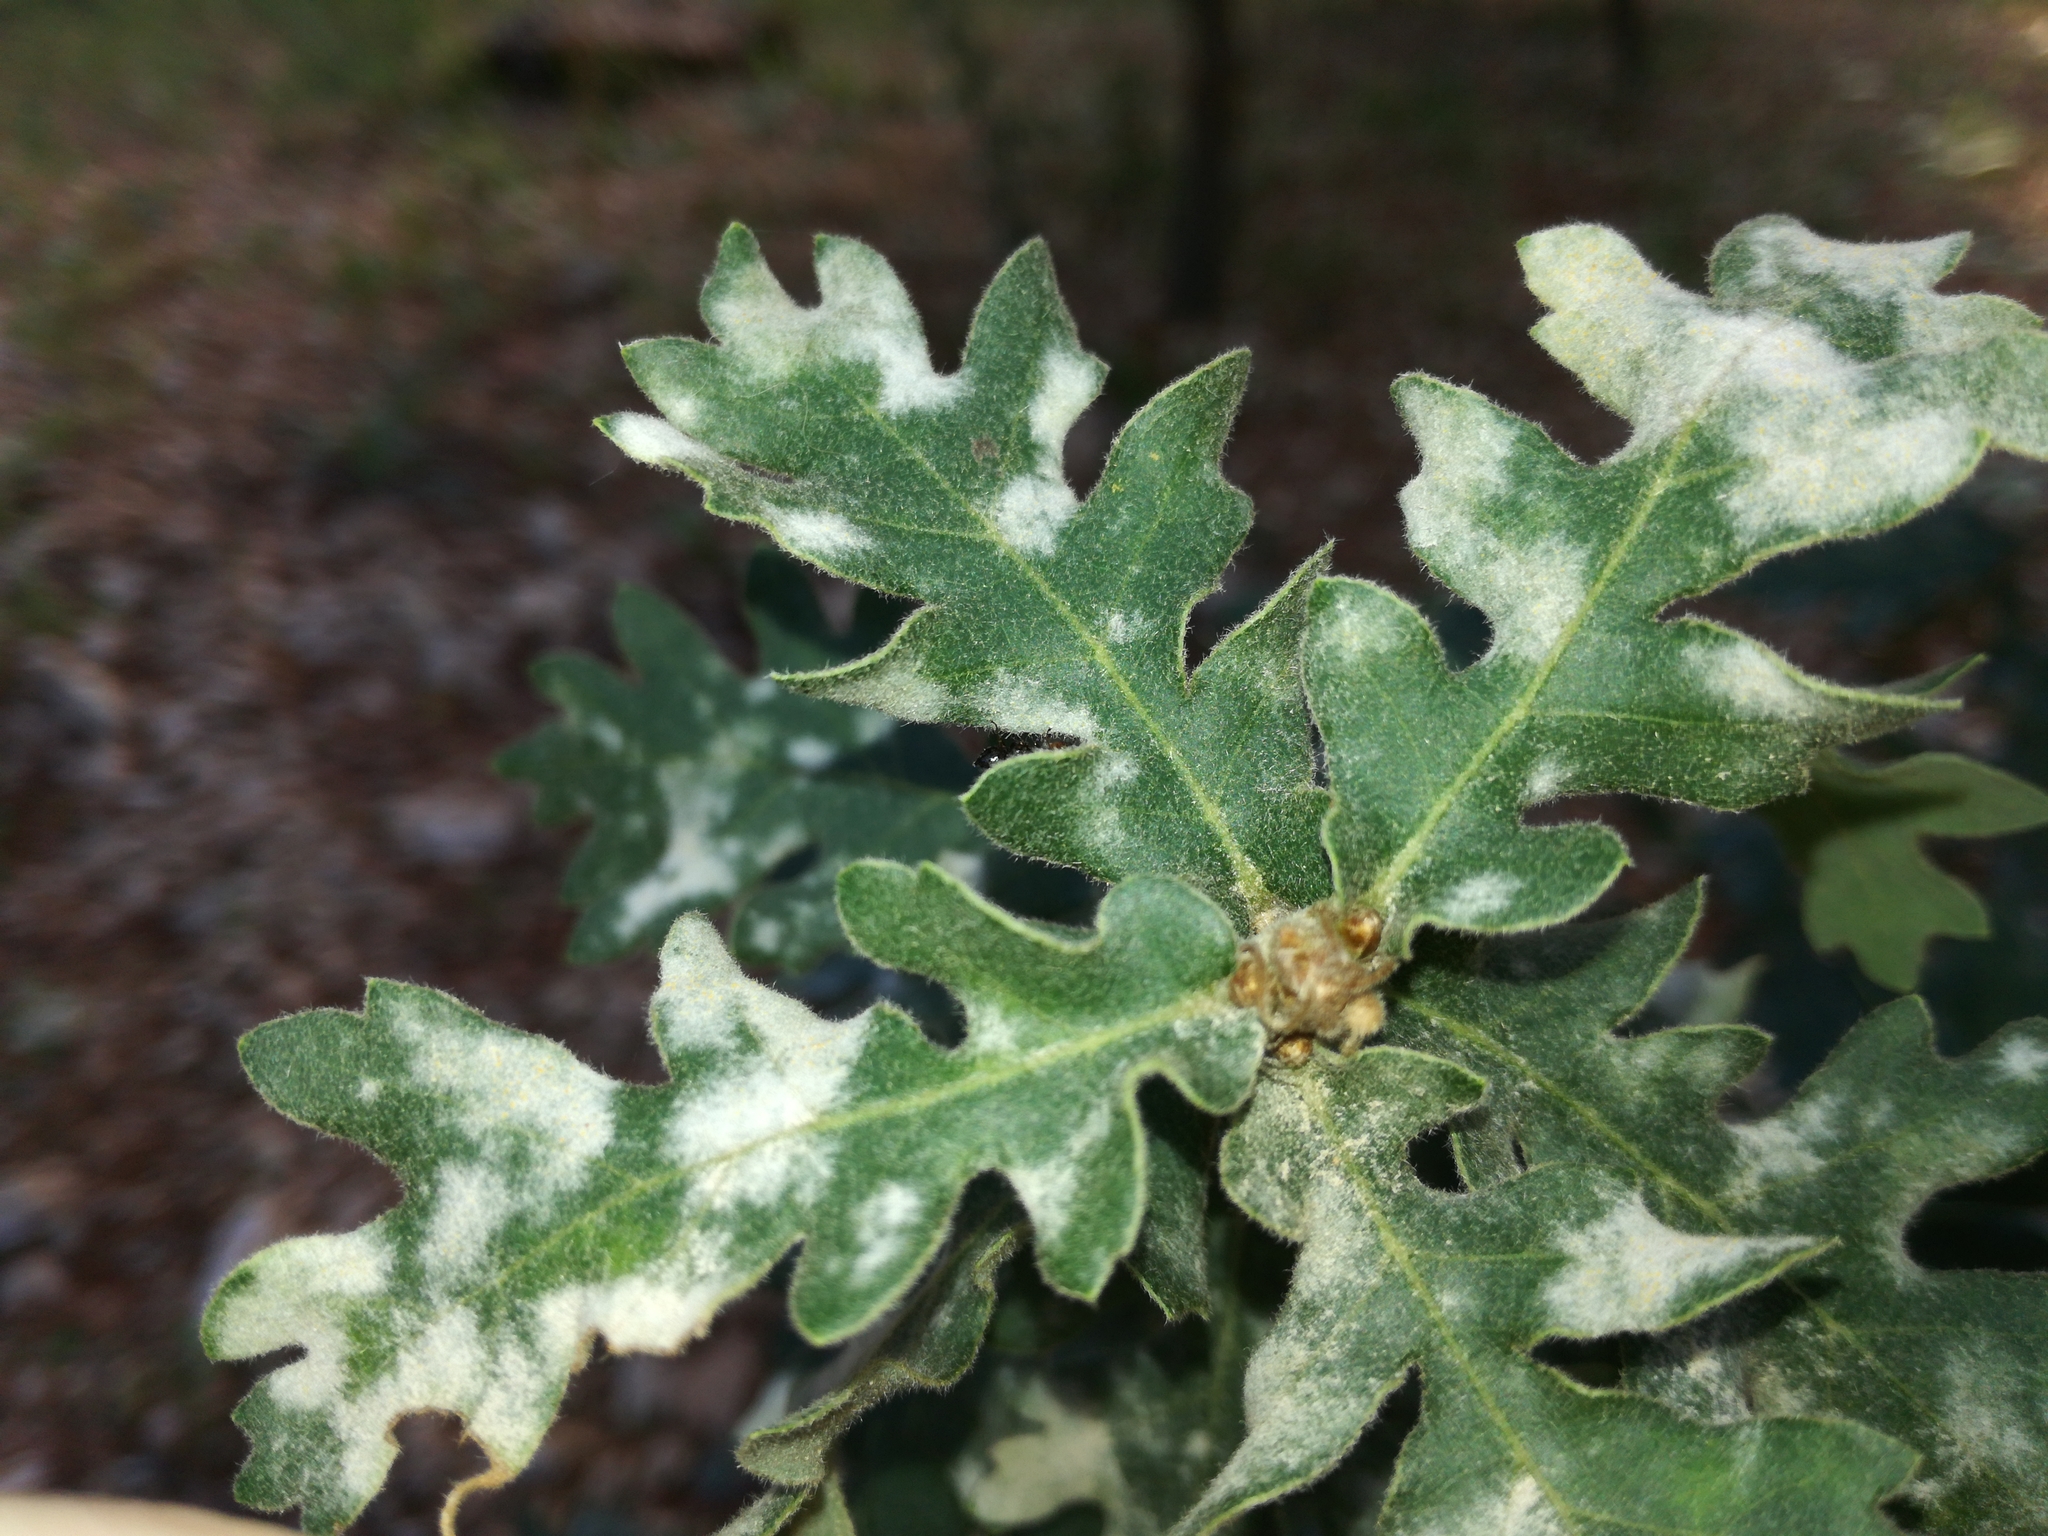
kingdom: Plantae
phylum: Tracheophyta
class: Magnoliopsida
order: Fagales
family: Fagaceae
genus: Quercus
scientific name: Quercus pubescens
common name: Downy oak
